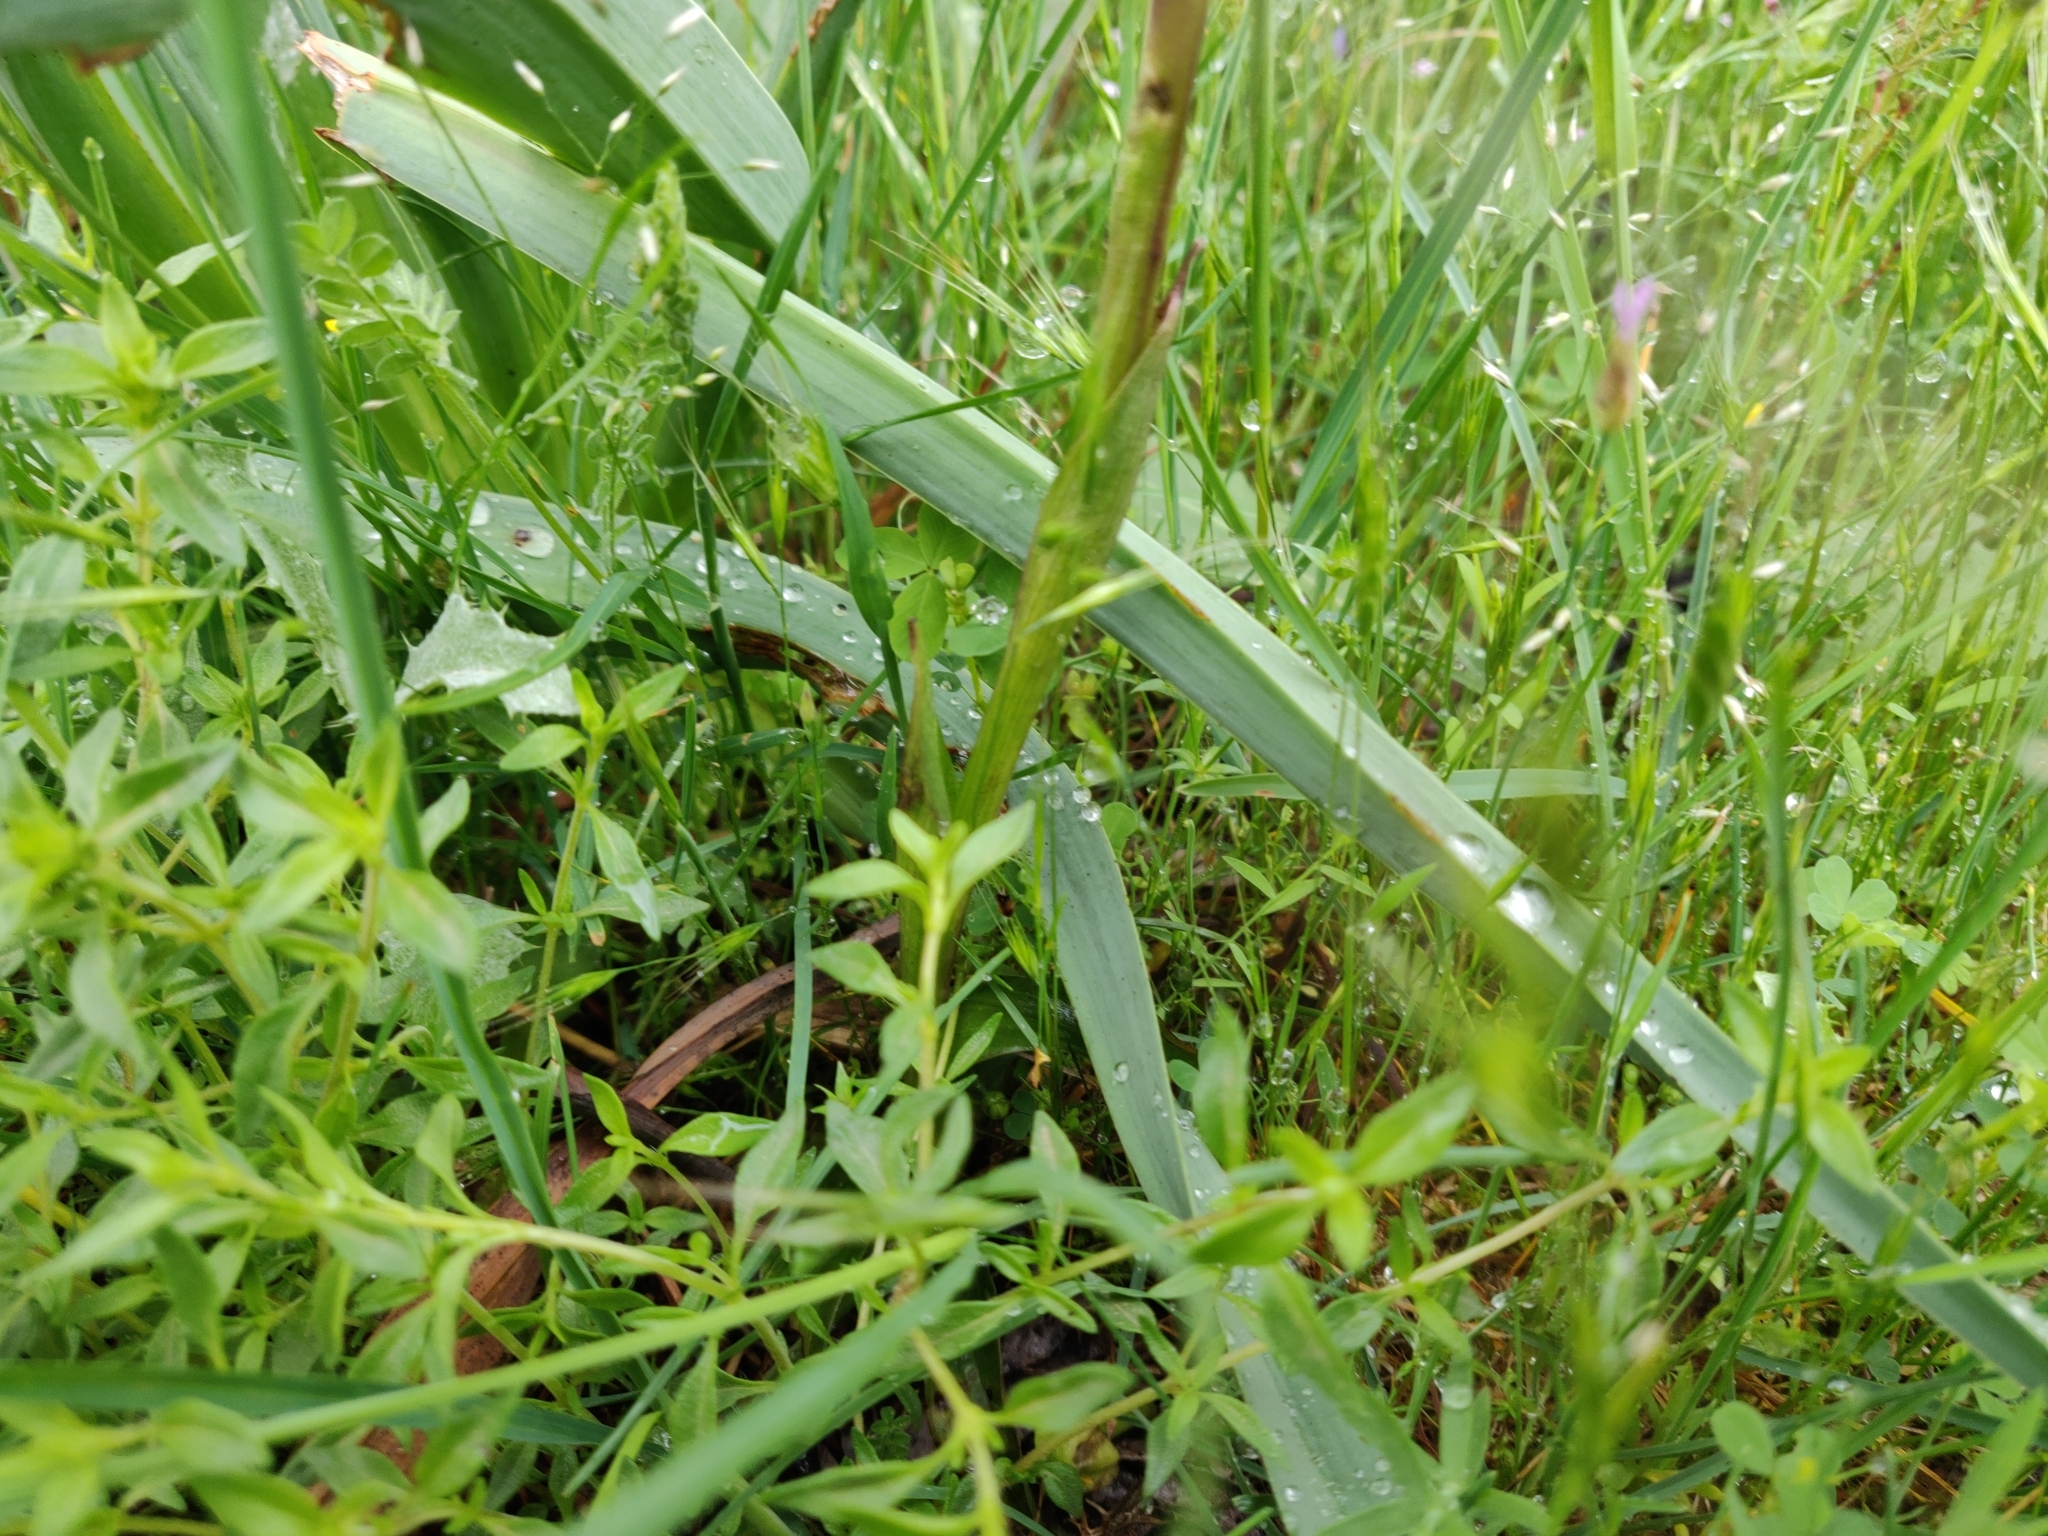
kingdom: Plantae
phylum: Tracheophyta
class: Liliopsida
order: Asparagales
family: Orchidaceae
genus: Anacamptis
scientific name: Anacamptis caccabaria
